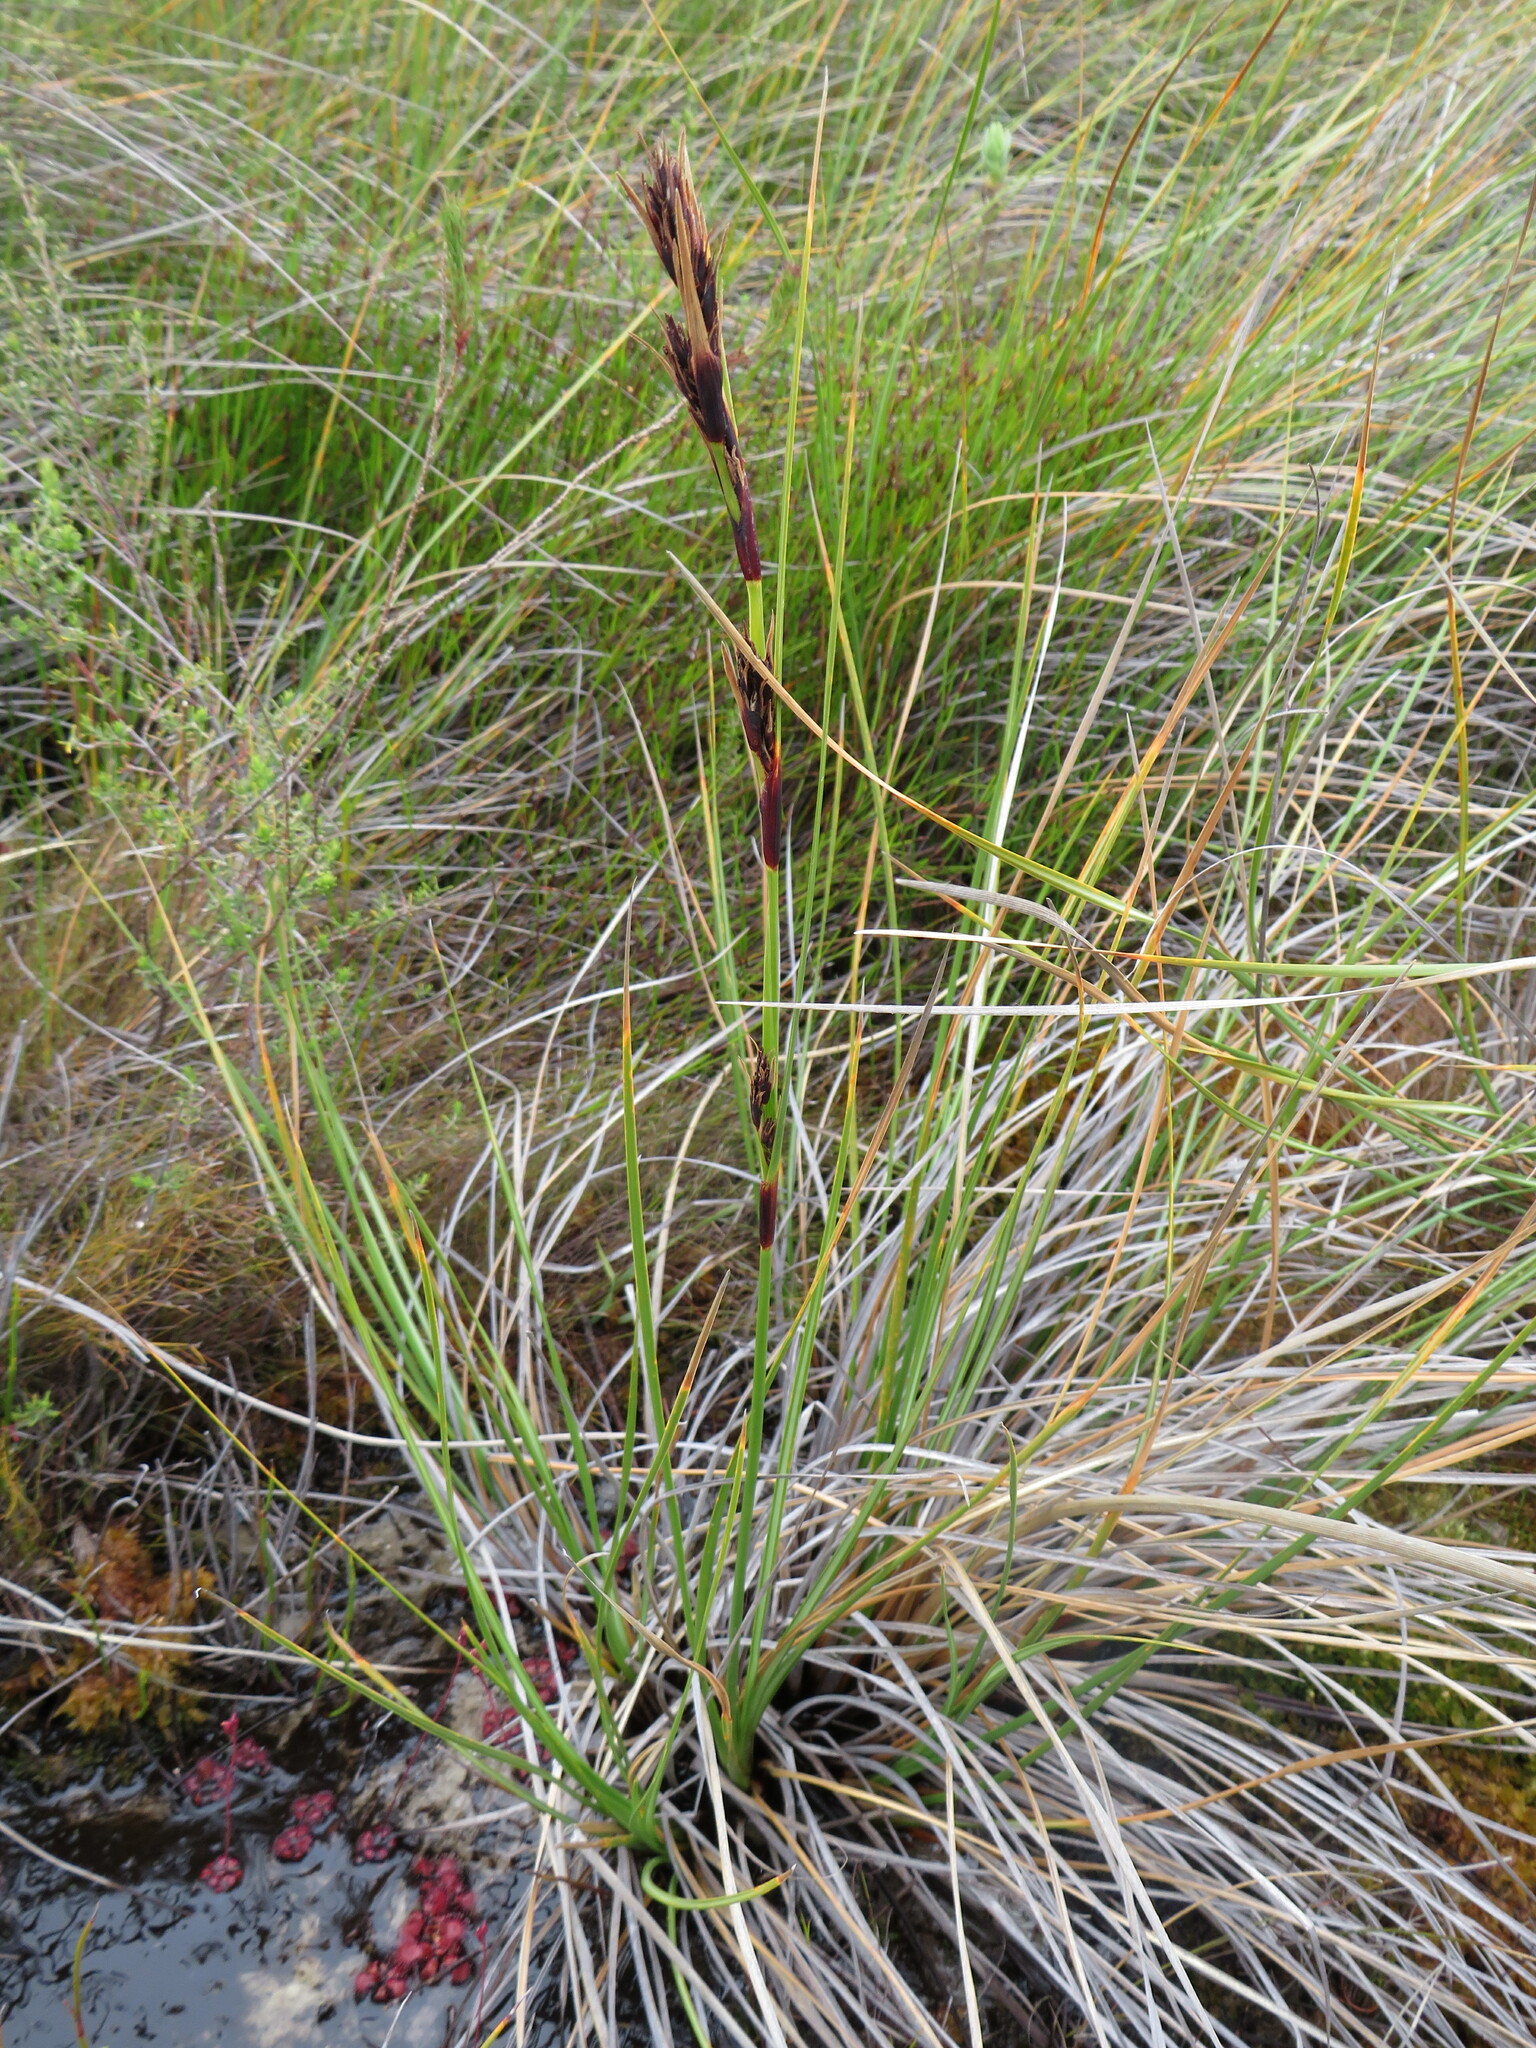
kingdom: Plantae
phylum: Tracheophyta
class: Liliopsida
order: Poales
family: Cyperaceae
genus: Cyathocoma
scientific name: Cyathocoma hexandra
